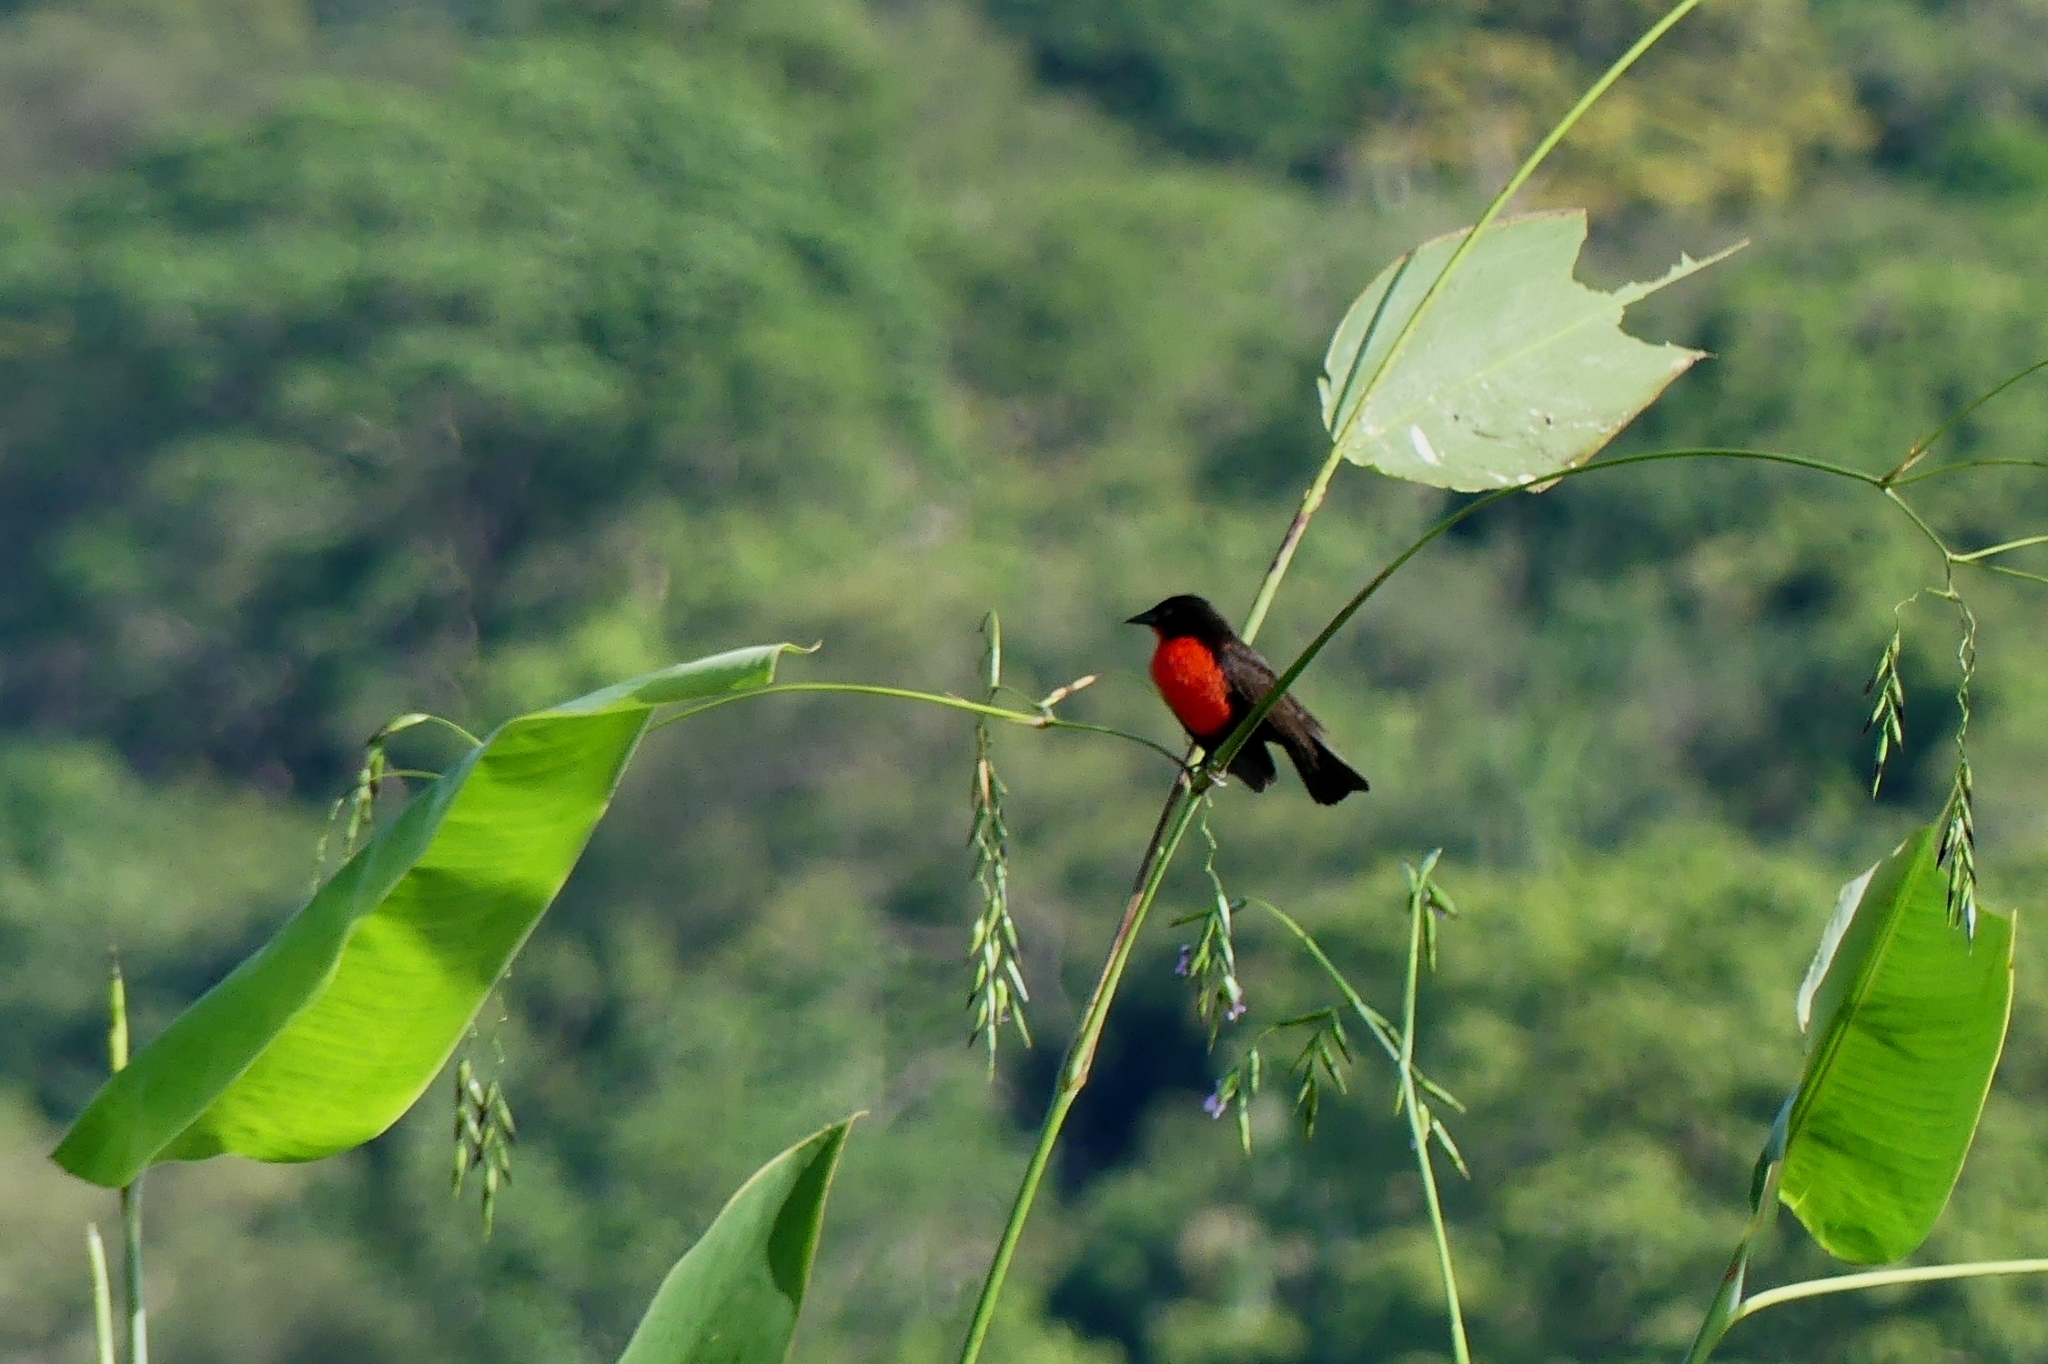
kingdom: Animalia
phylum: Chordata
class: Aves
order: Passeriformes
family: Icteridae
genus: Sturnella
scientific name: Sturnella militaris
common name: Red-breasted blackbird
